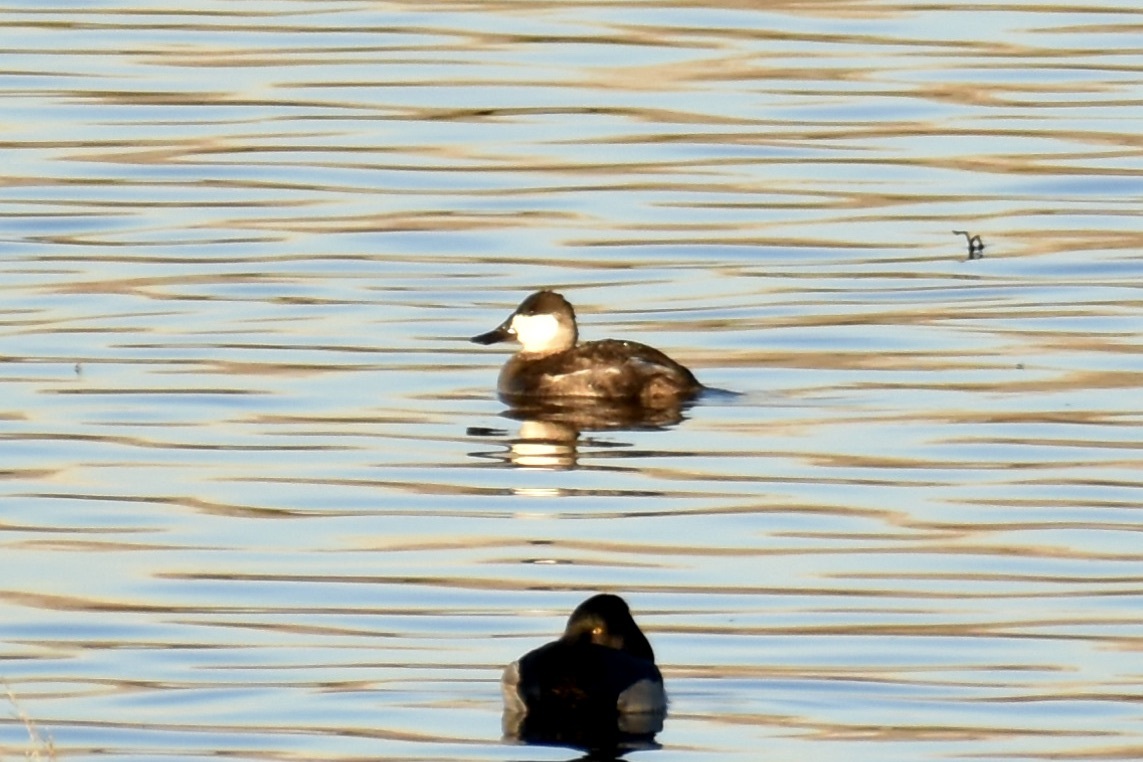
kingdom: Animalia
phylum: Chordata
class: Aves
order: Anseriformes
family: Anatidae
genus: Oxyura
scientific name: Oxyura jamaicensis
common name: Ruddy duck
